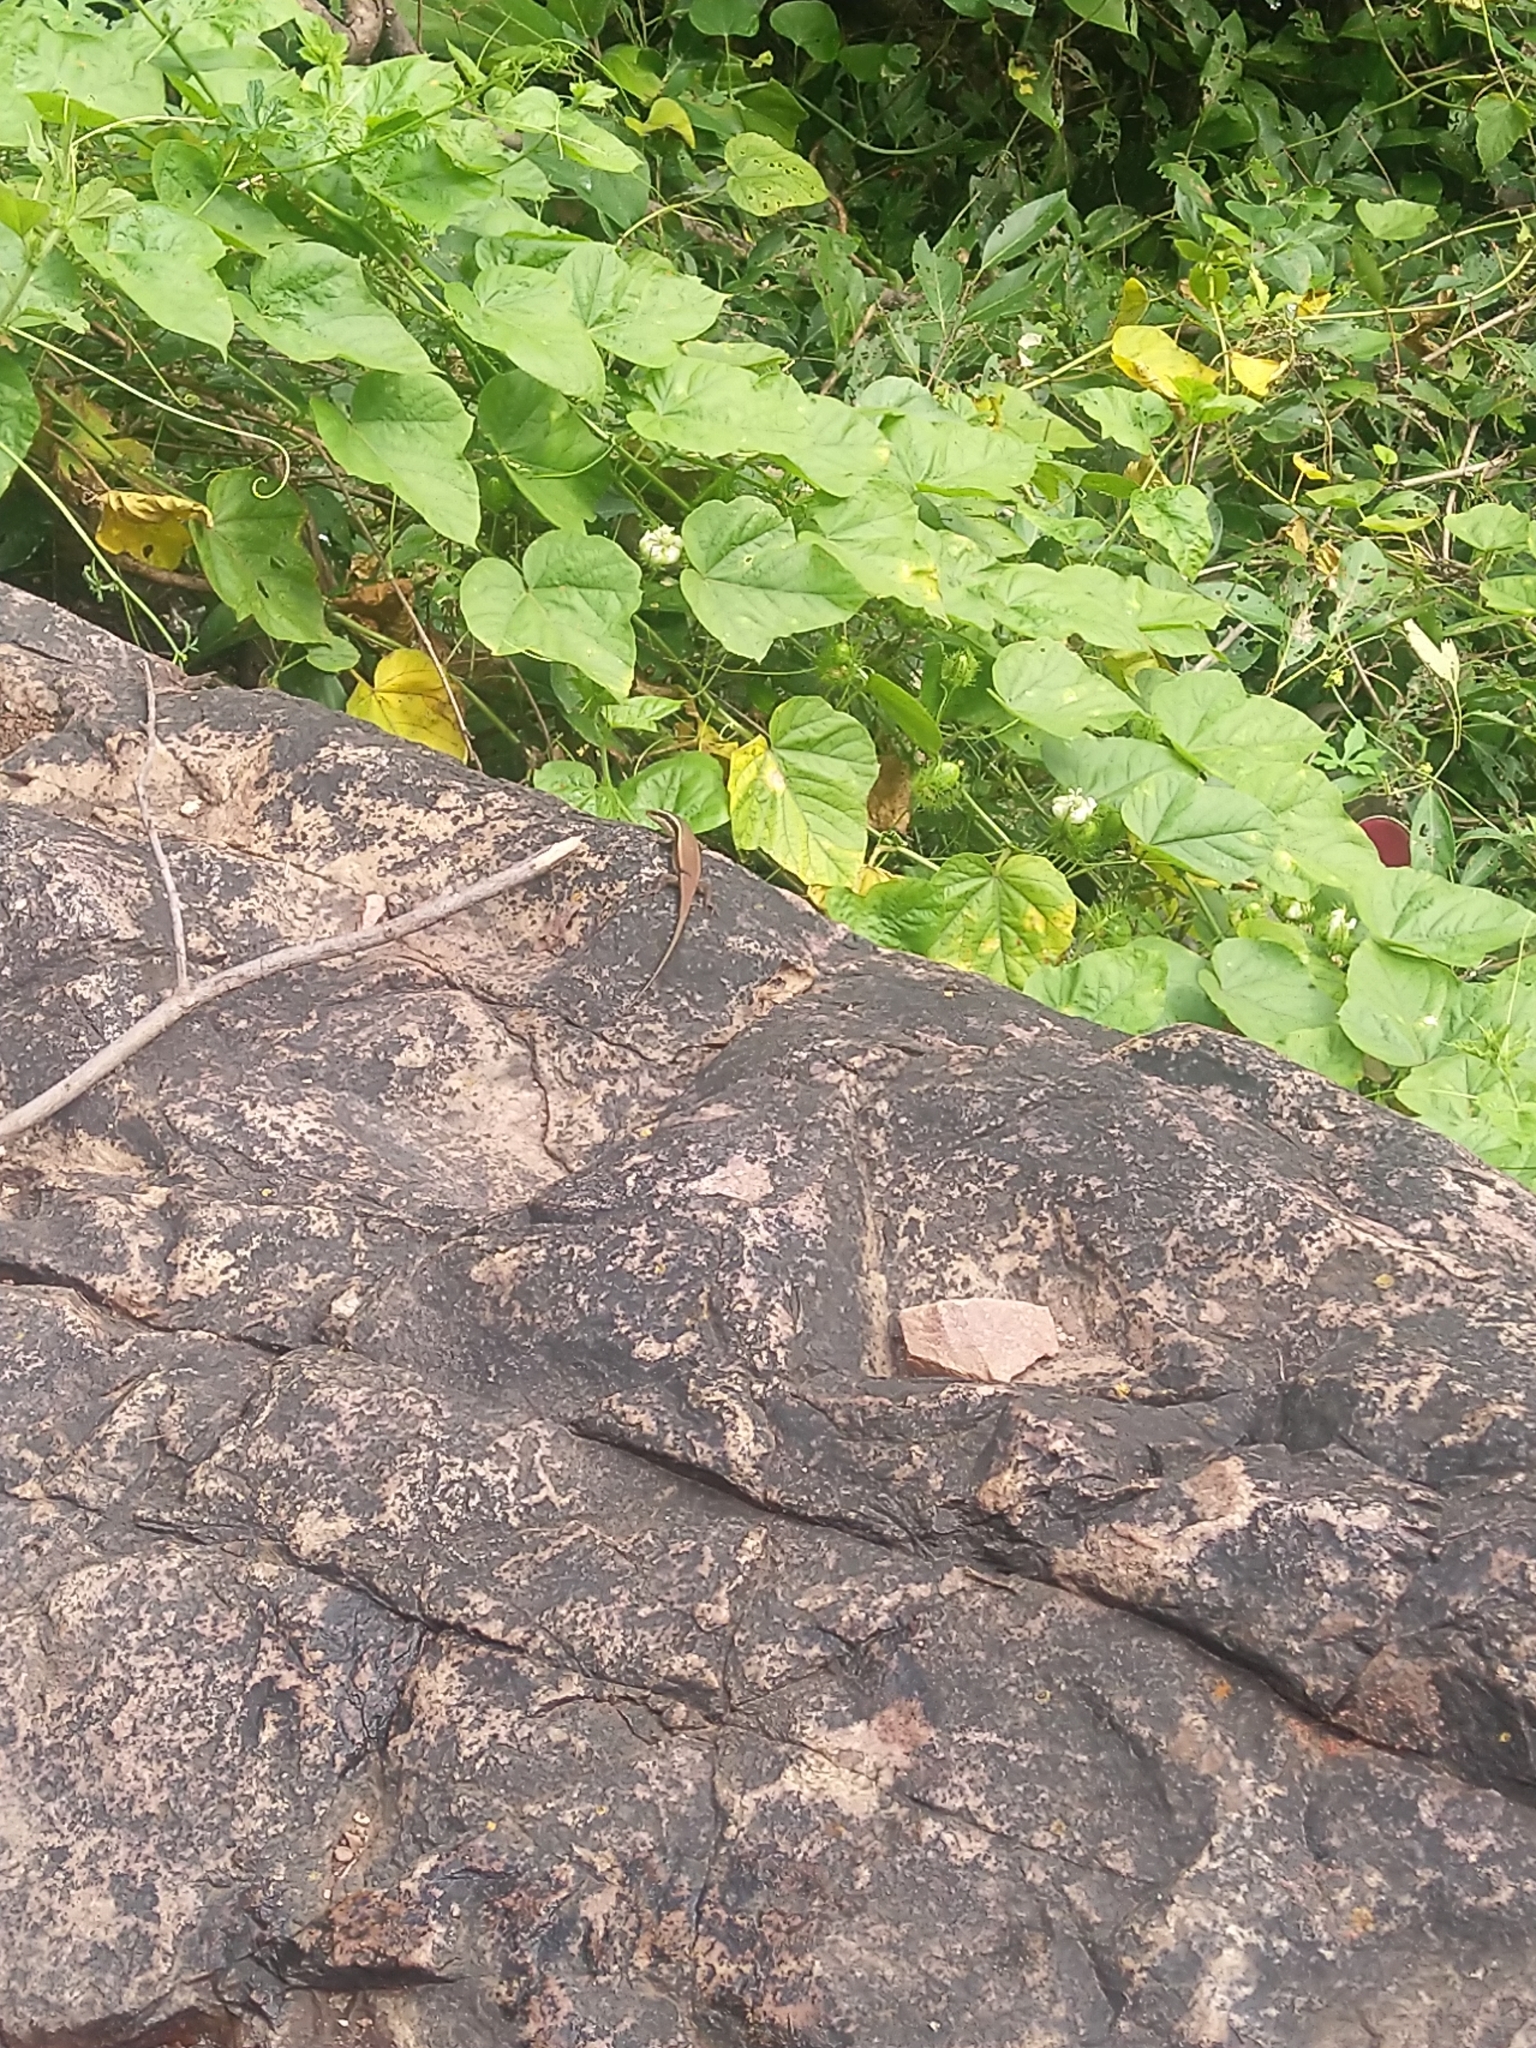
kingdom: Animalia
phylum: Chordata
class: Squamata
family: Scincidae
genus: Eutropis
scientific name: Eutropis carinata
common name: Keeled indian mabuya
